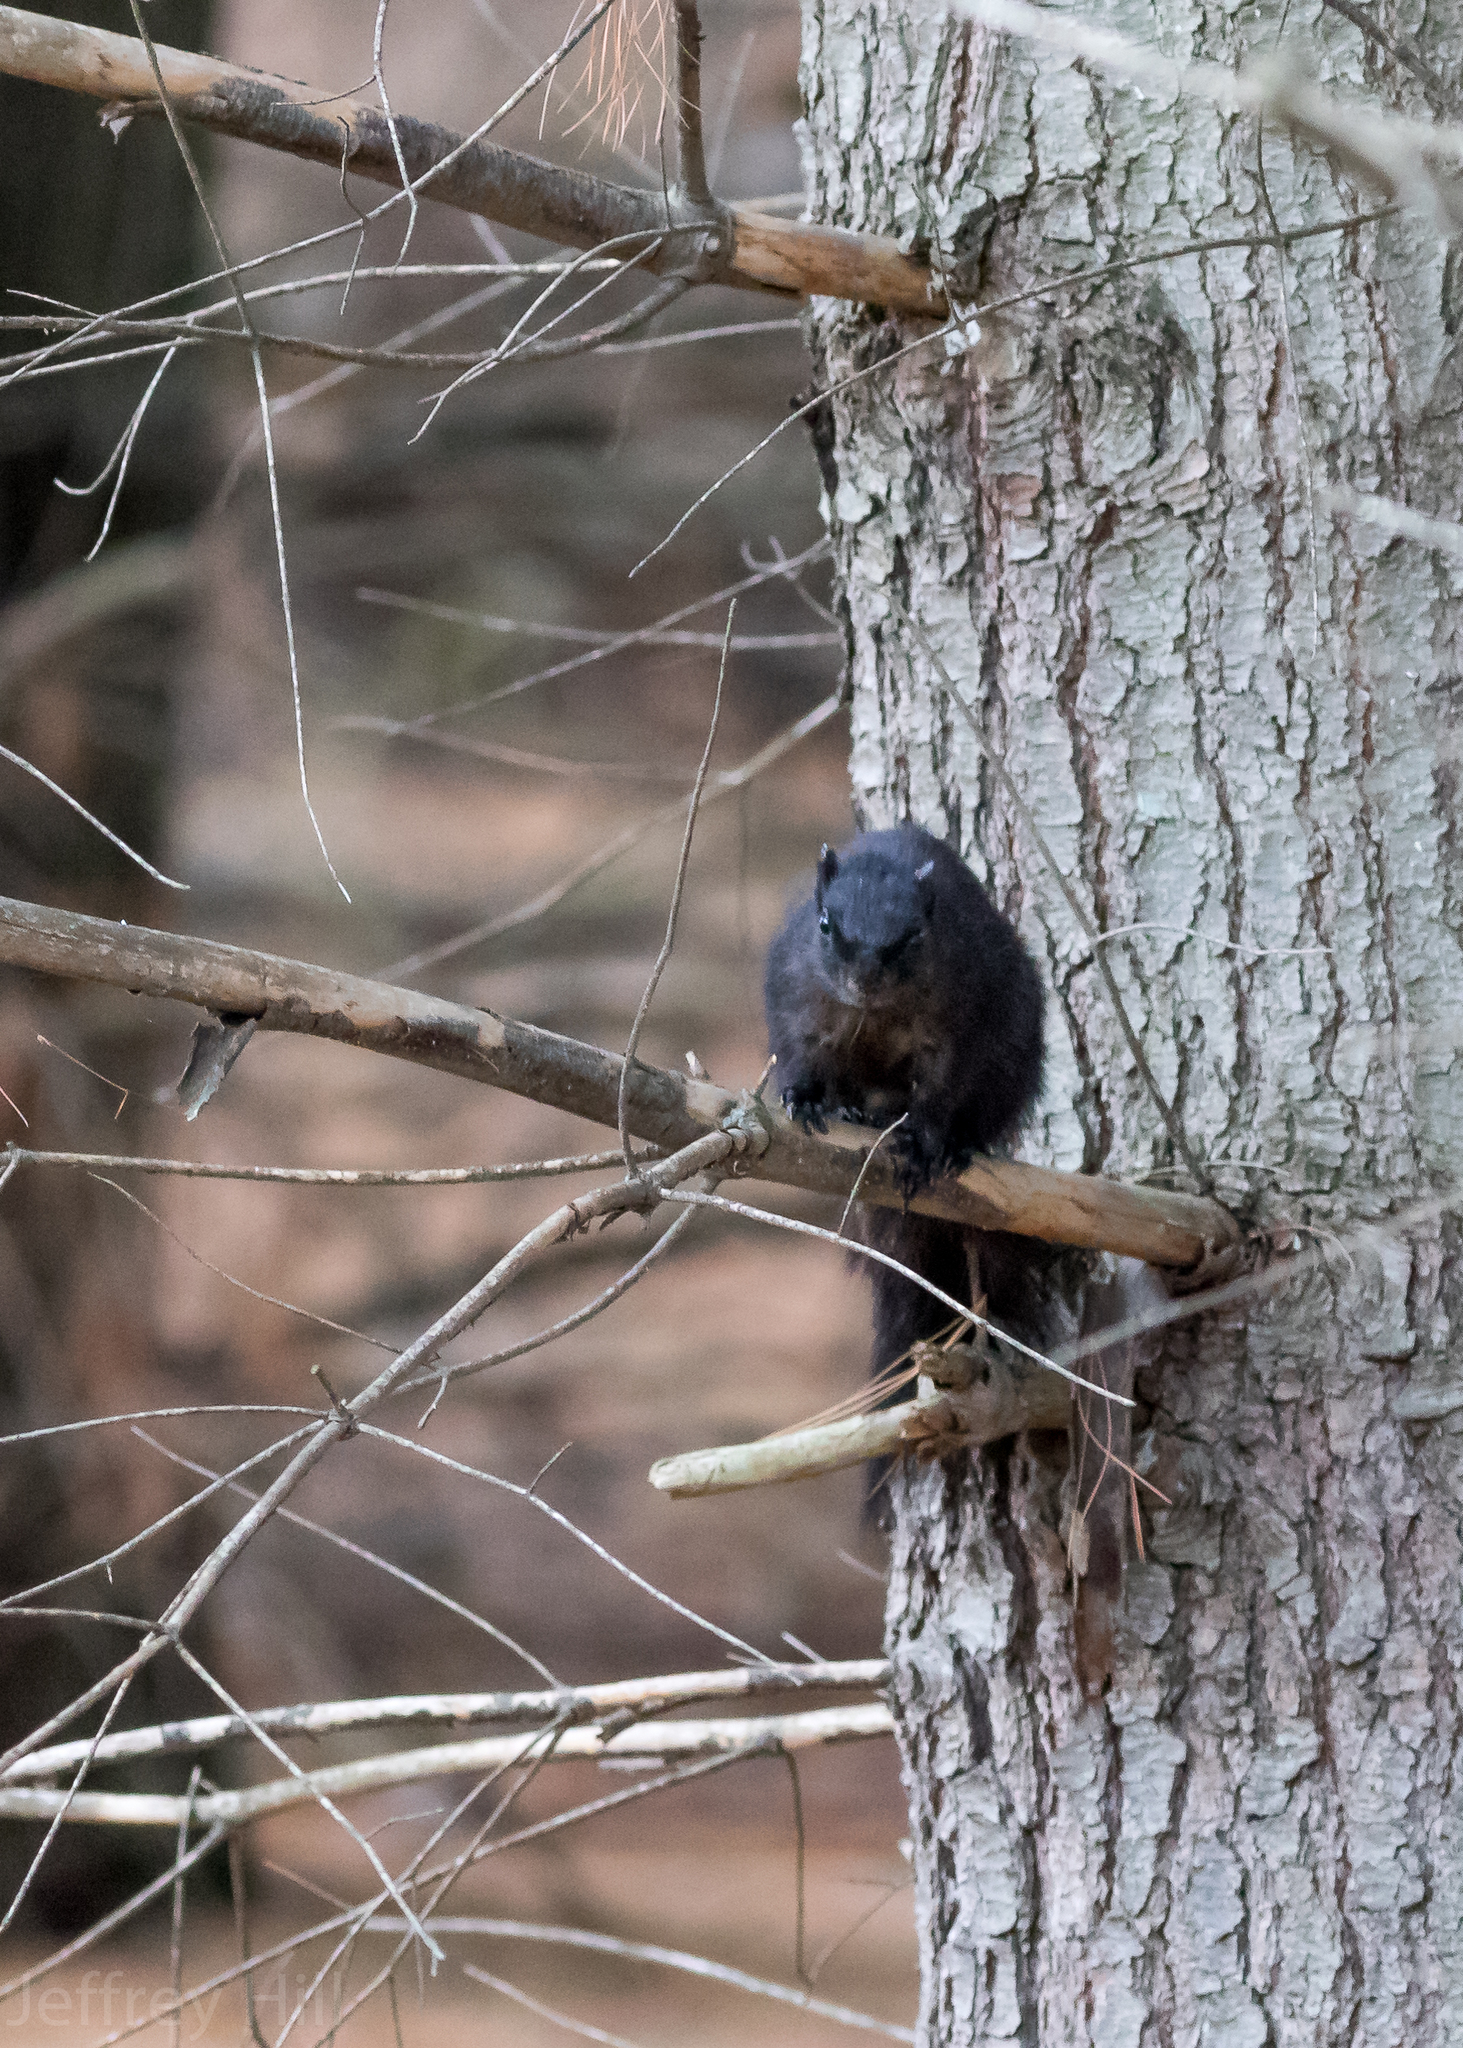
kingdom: Animalia
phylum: Chordata
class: Mammalia
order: Rodentia
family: Sciuridae
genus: Sciurus
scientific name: Sciurus niger
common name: Fox squirrel
